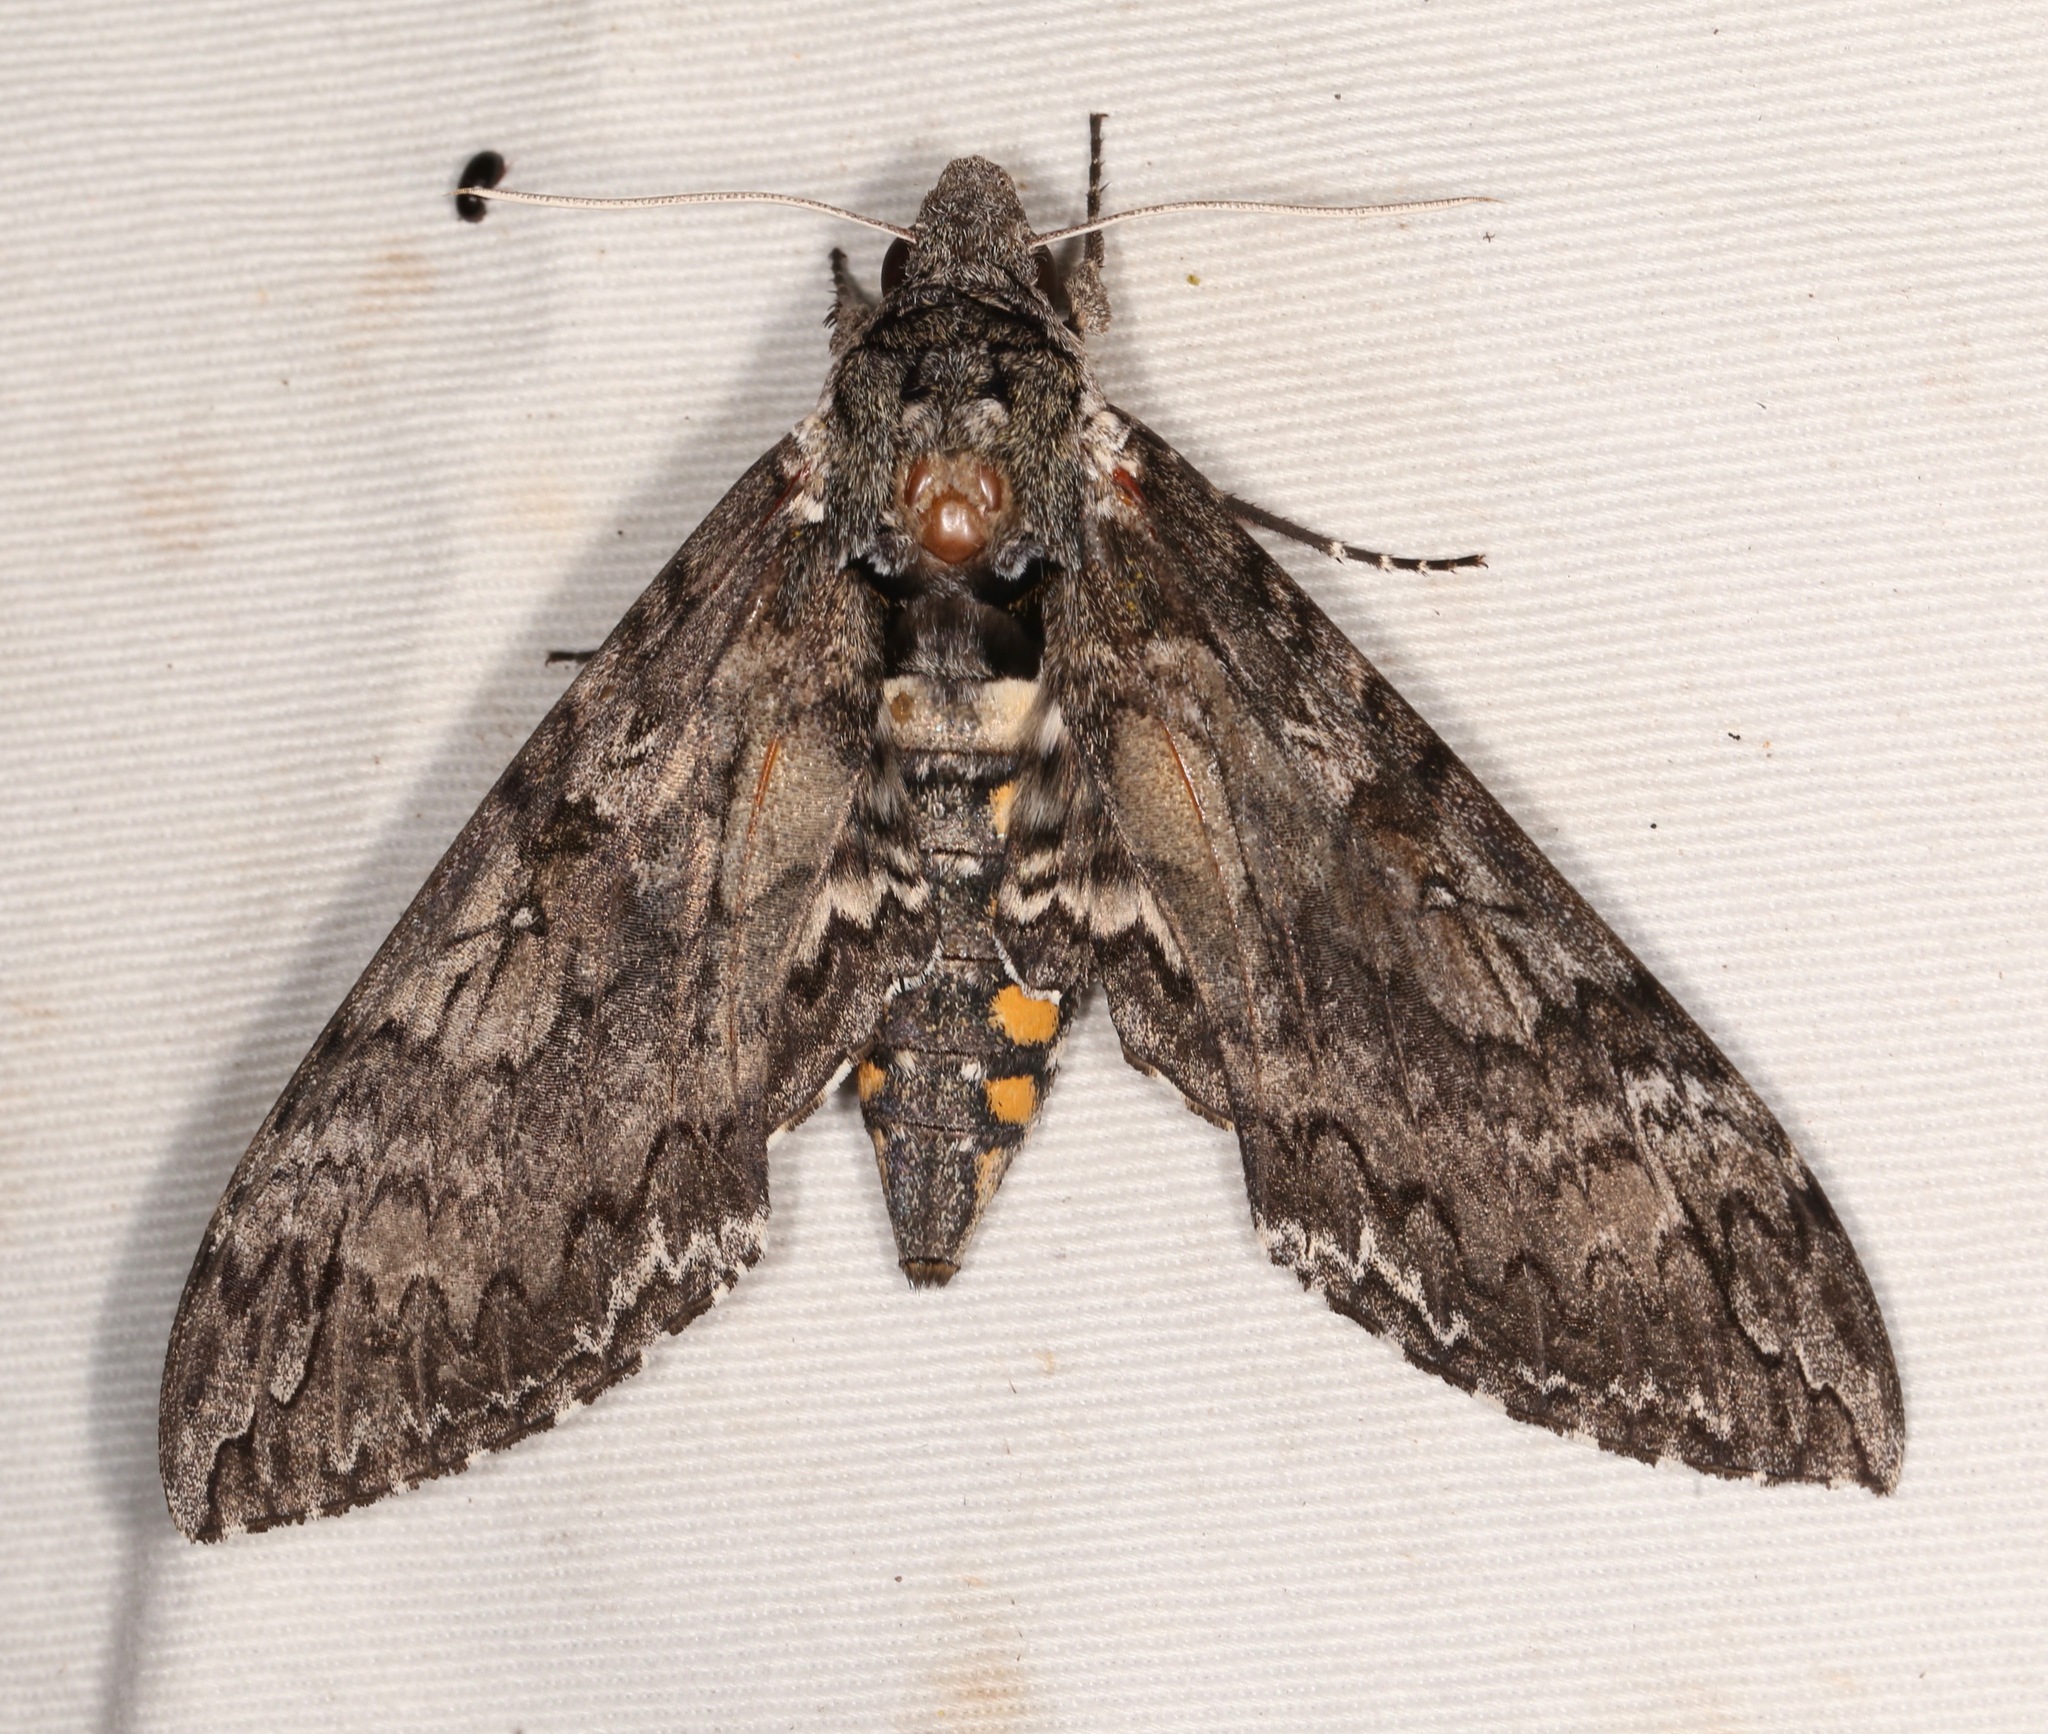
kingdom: Animalia
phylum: Arthropoda
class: Insecta
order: Lepidoptera
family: Sphingidae
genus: Manduca
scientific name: Manduca sexta
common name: Carolina sphinx
